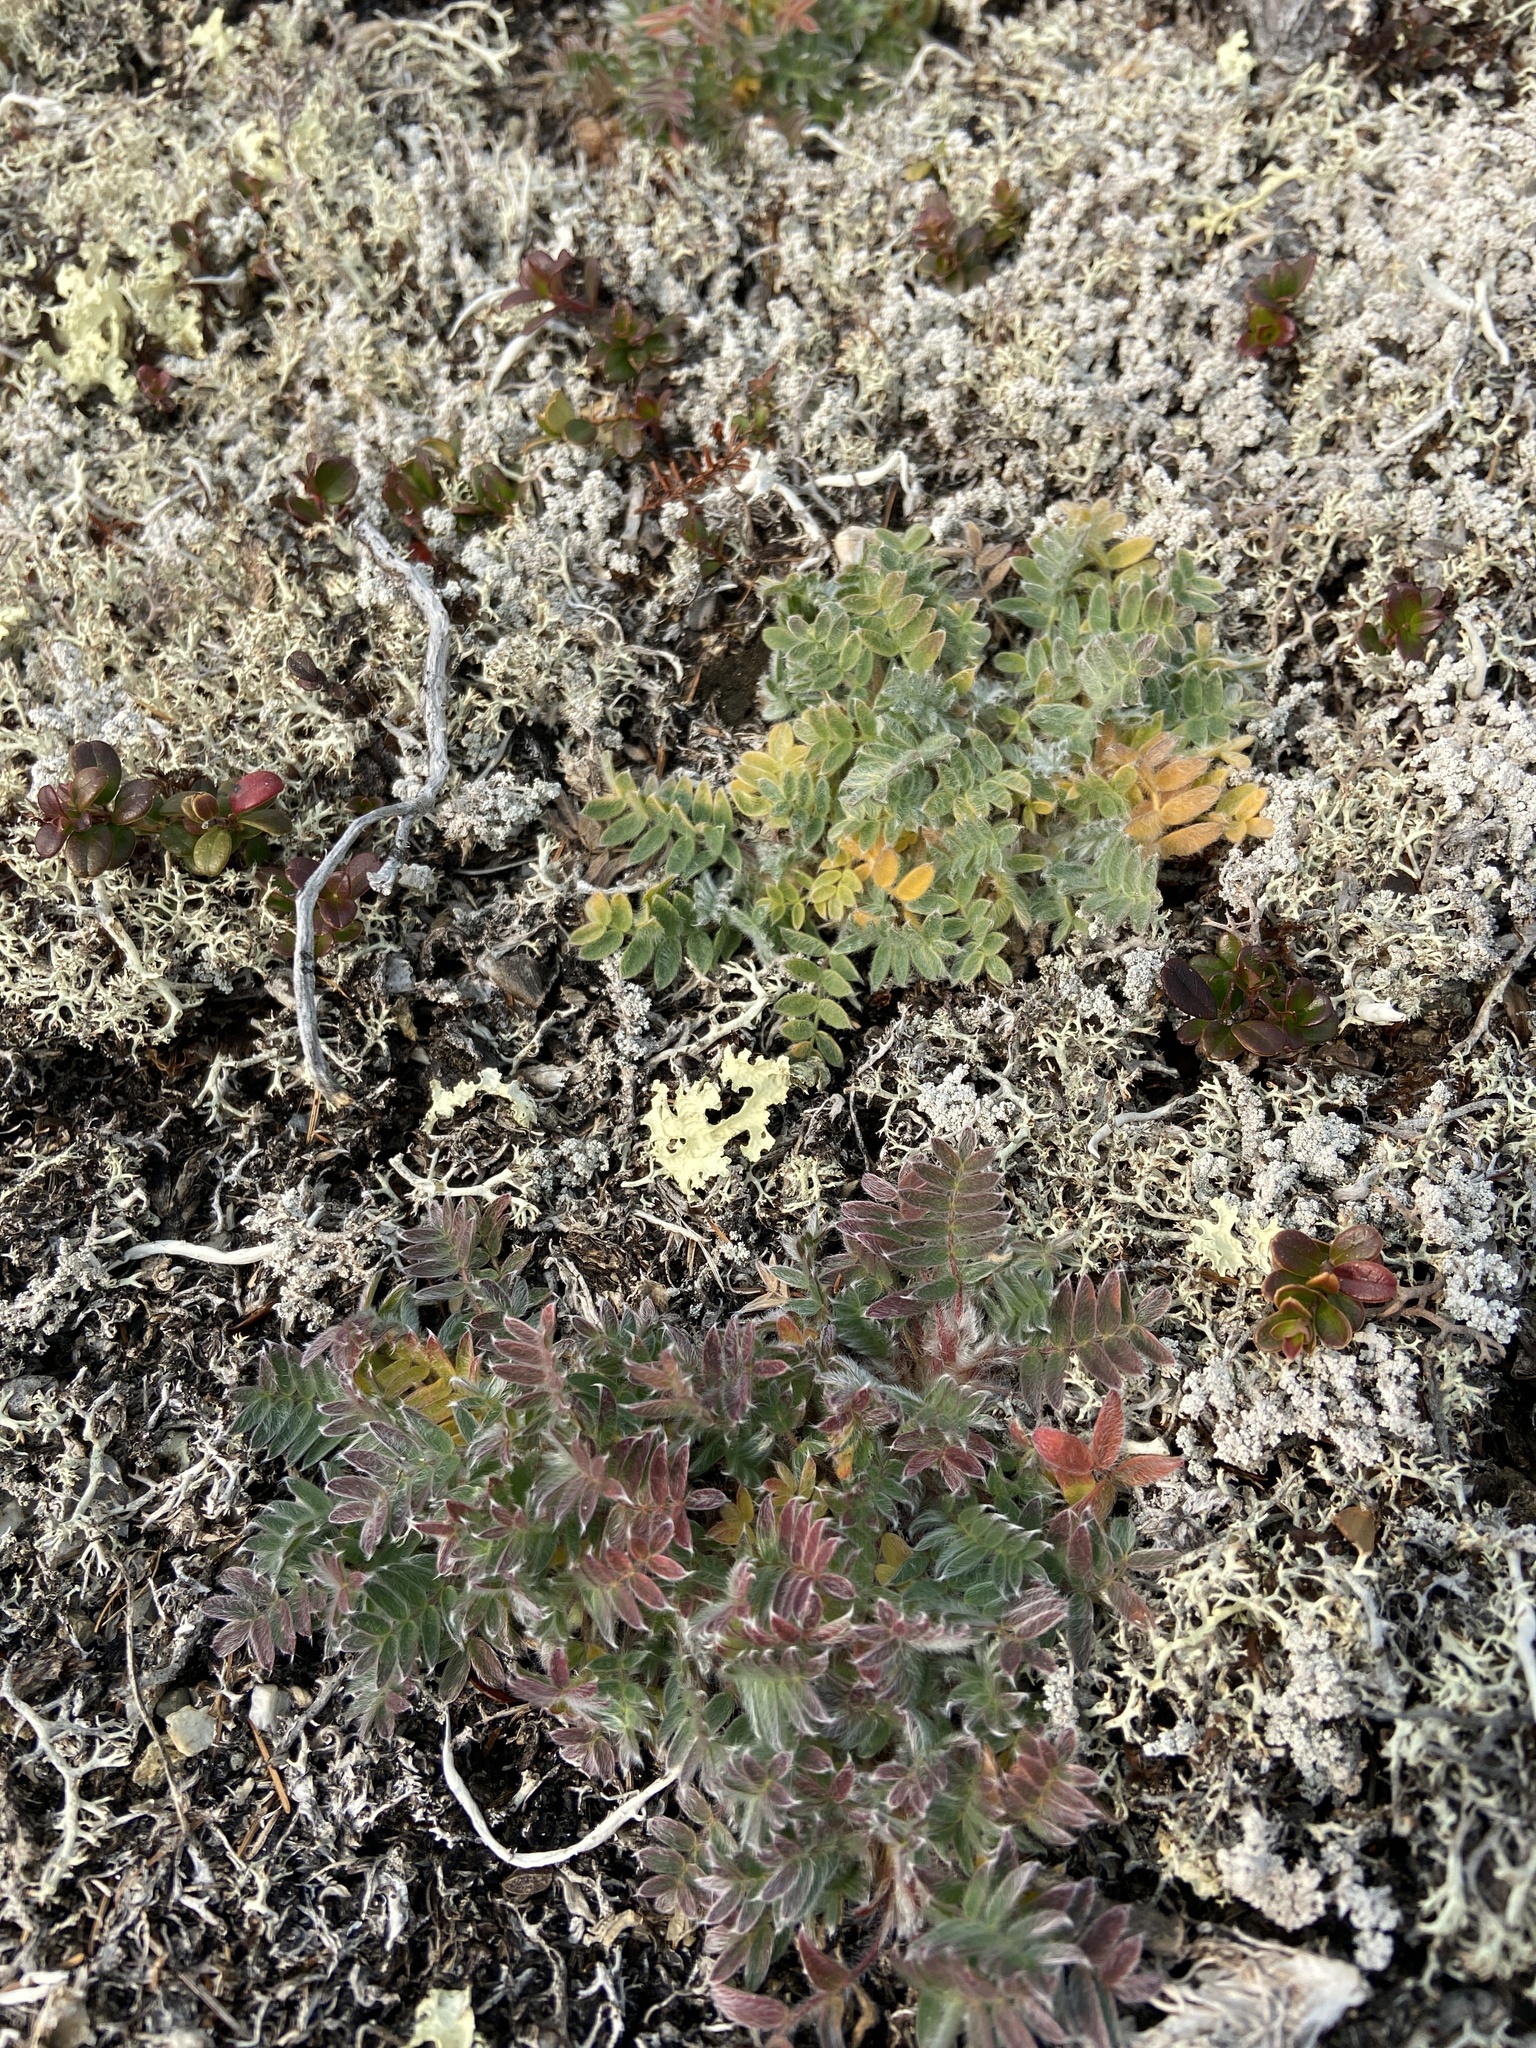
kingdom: Plantae
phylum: Tracheophyta
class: Magnoliopsida
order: Fabales
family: Fabaceae
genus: Oxytropis
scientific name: Oxytropis susumanica
